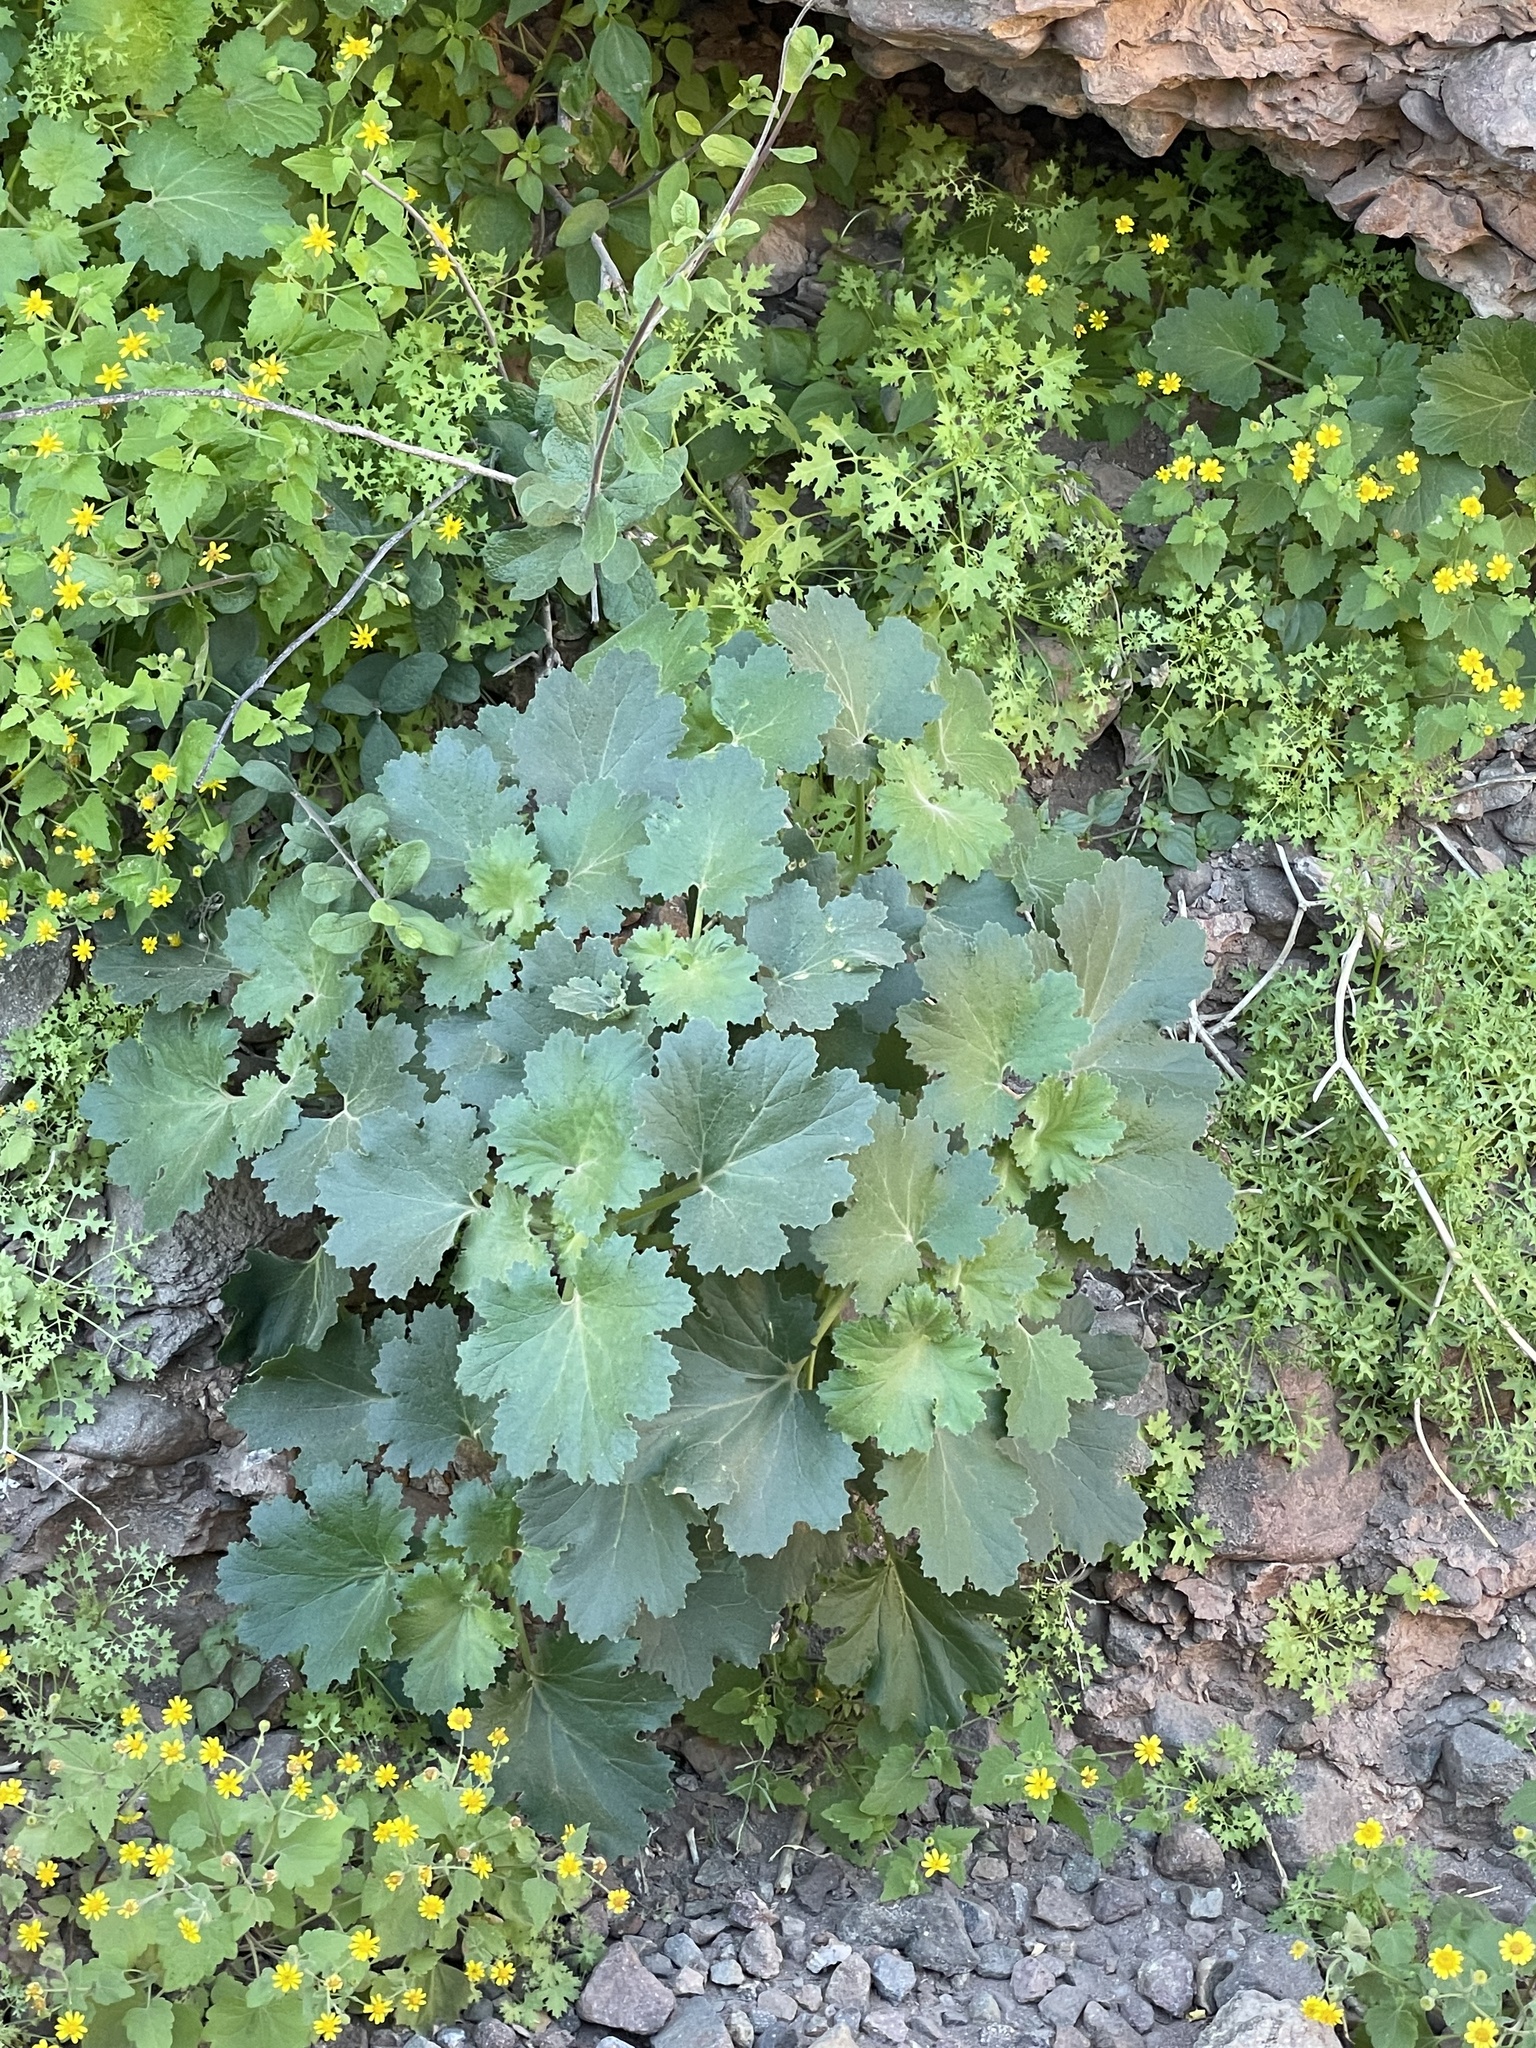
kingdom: Plantae
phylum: Tracheophyta
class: Magnoliopsida
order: Cornales
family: Loasaceae
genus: Eucnide
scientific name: Eucnide cordata
